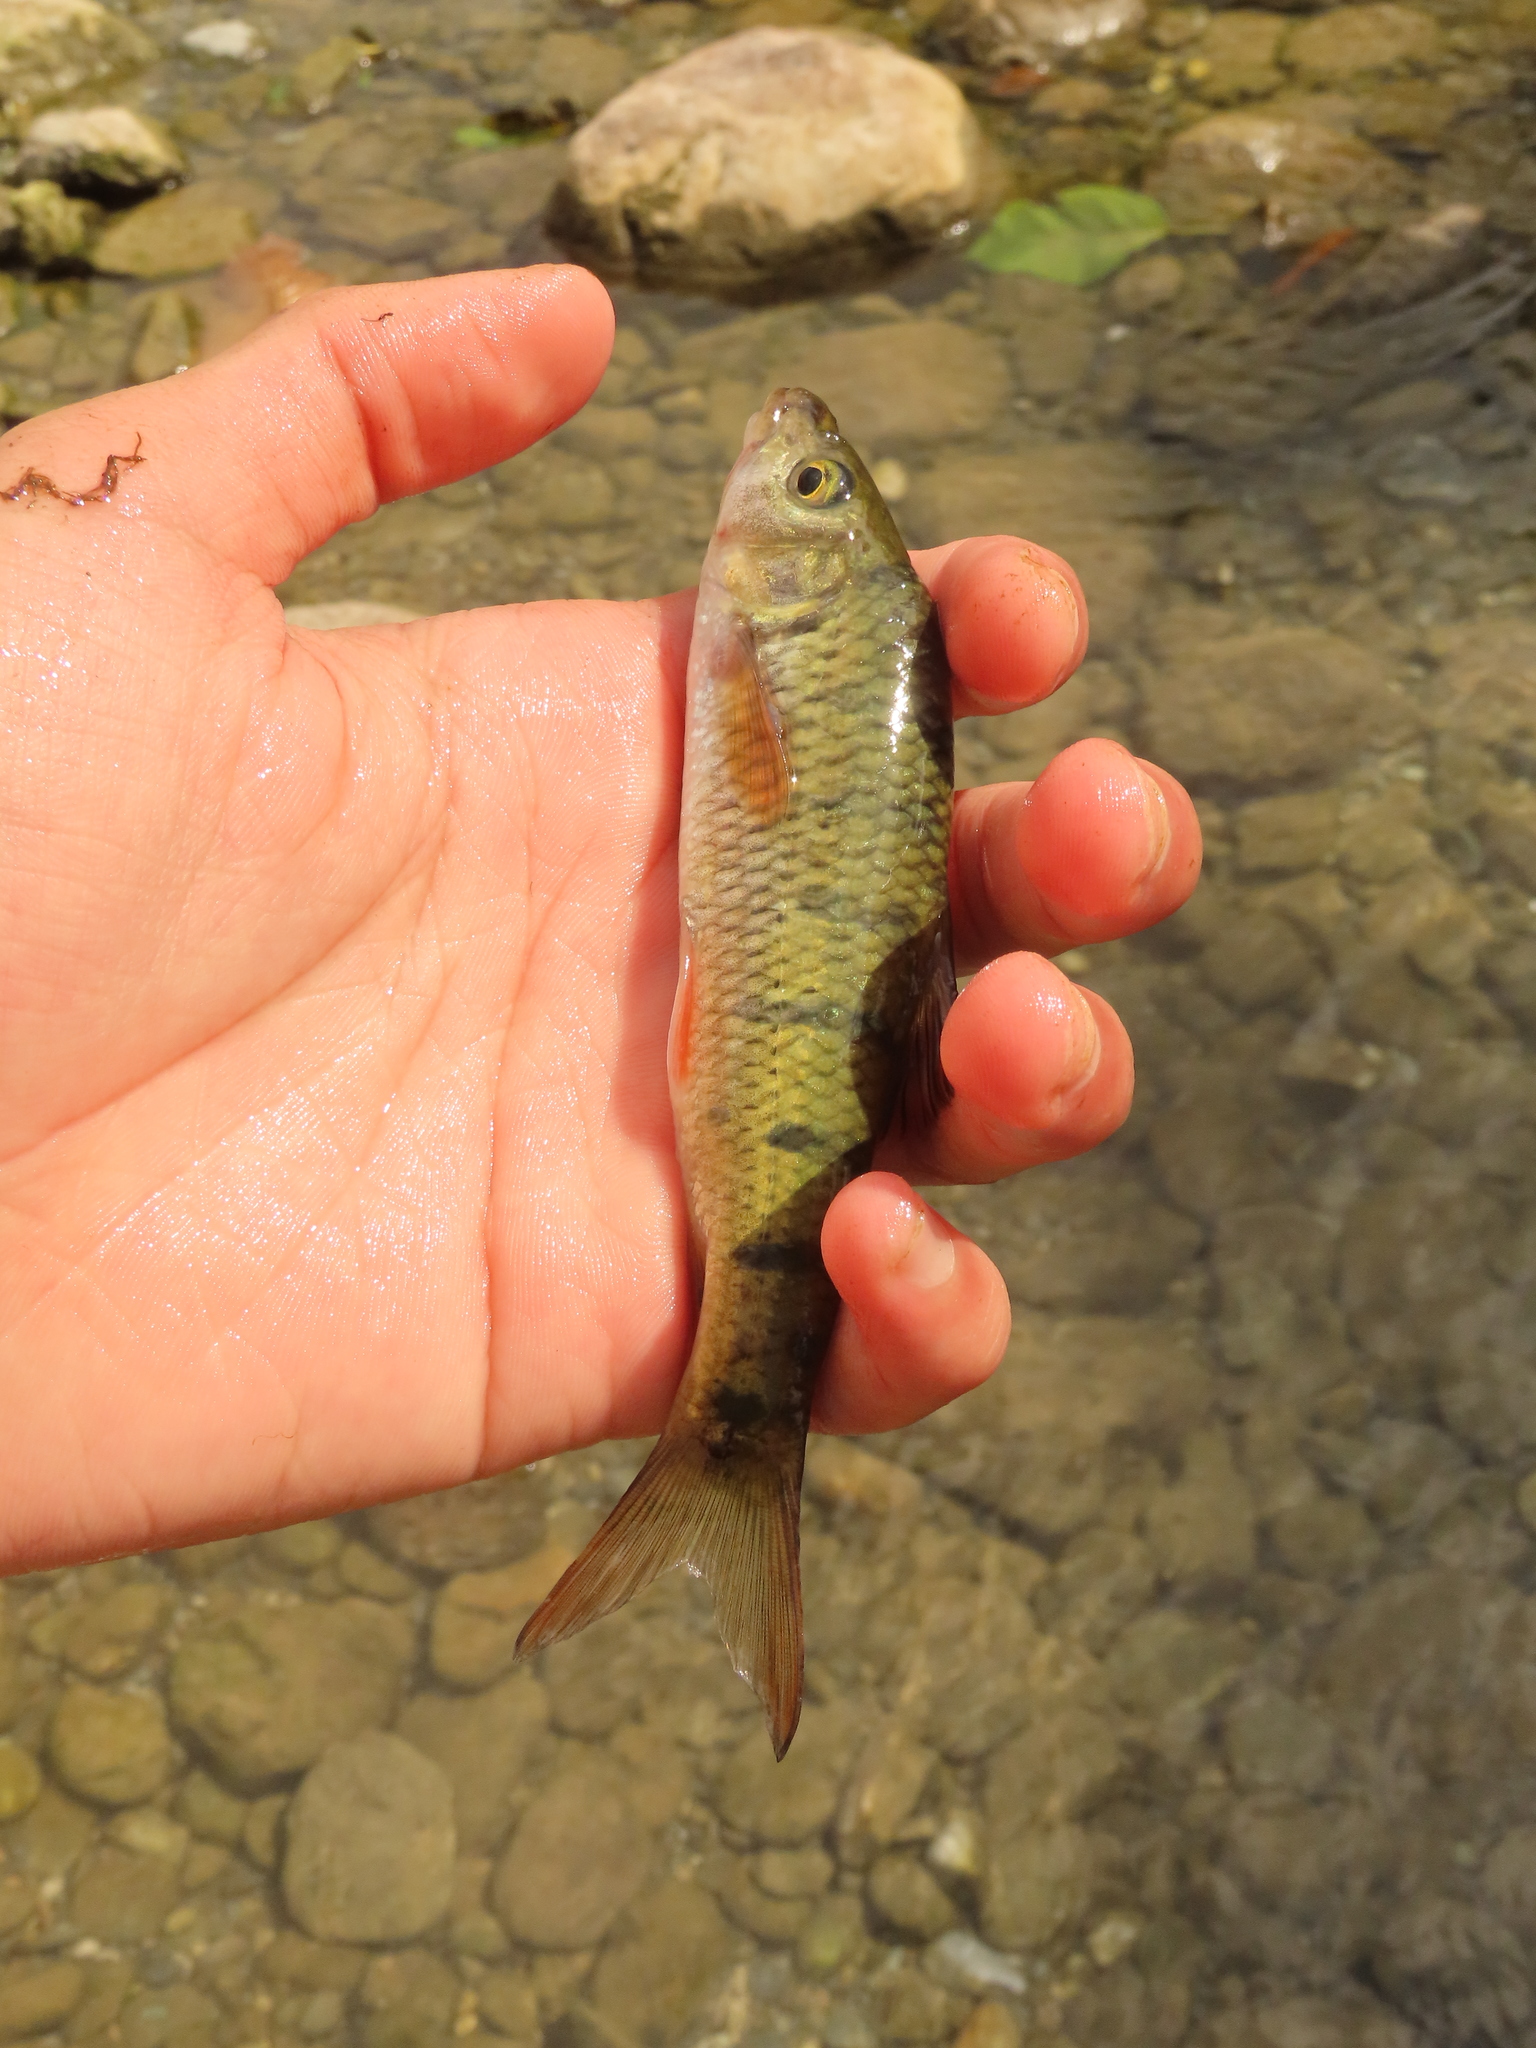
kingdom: Animalia
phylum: Chordata
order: Cypriniformes
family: Cyprinidae
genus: Acrossocheilus
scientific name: Acrossocheilus paradoxus
